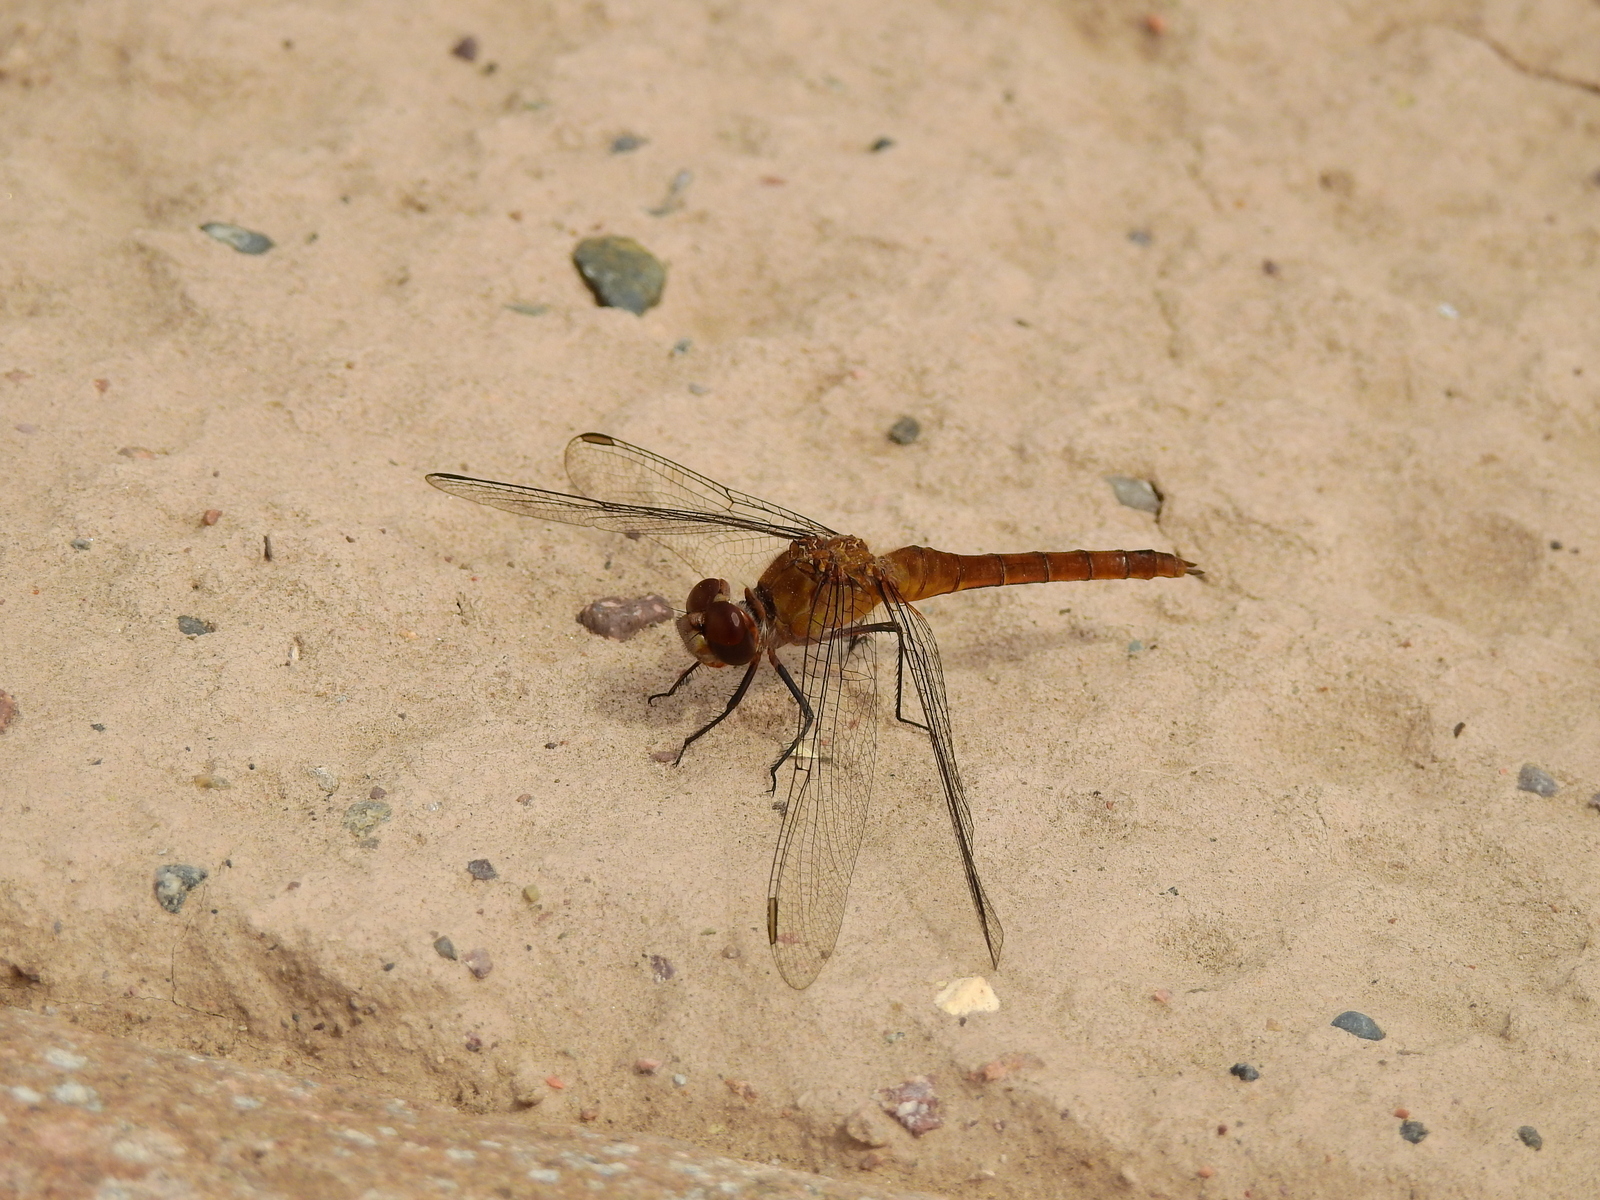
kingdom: Animalia
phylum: Arthropoda
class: Insecta
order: Odonata
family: Libellulidae
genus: Brachymesia
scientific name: Brachymesia furcata
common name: Red-taled pennant
